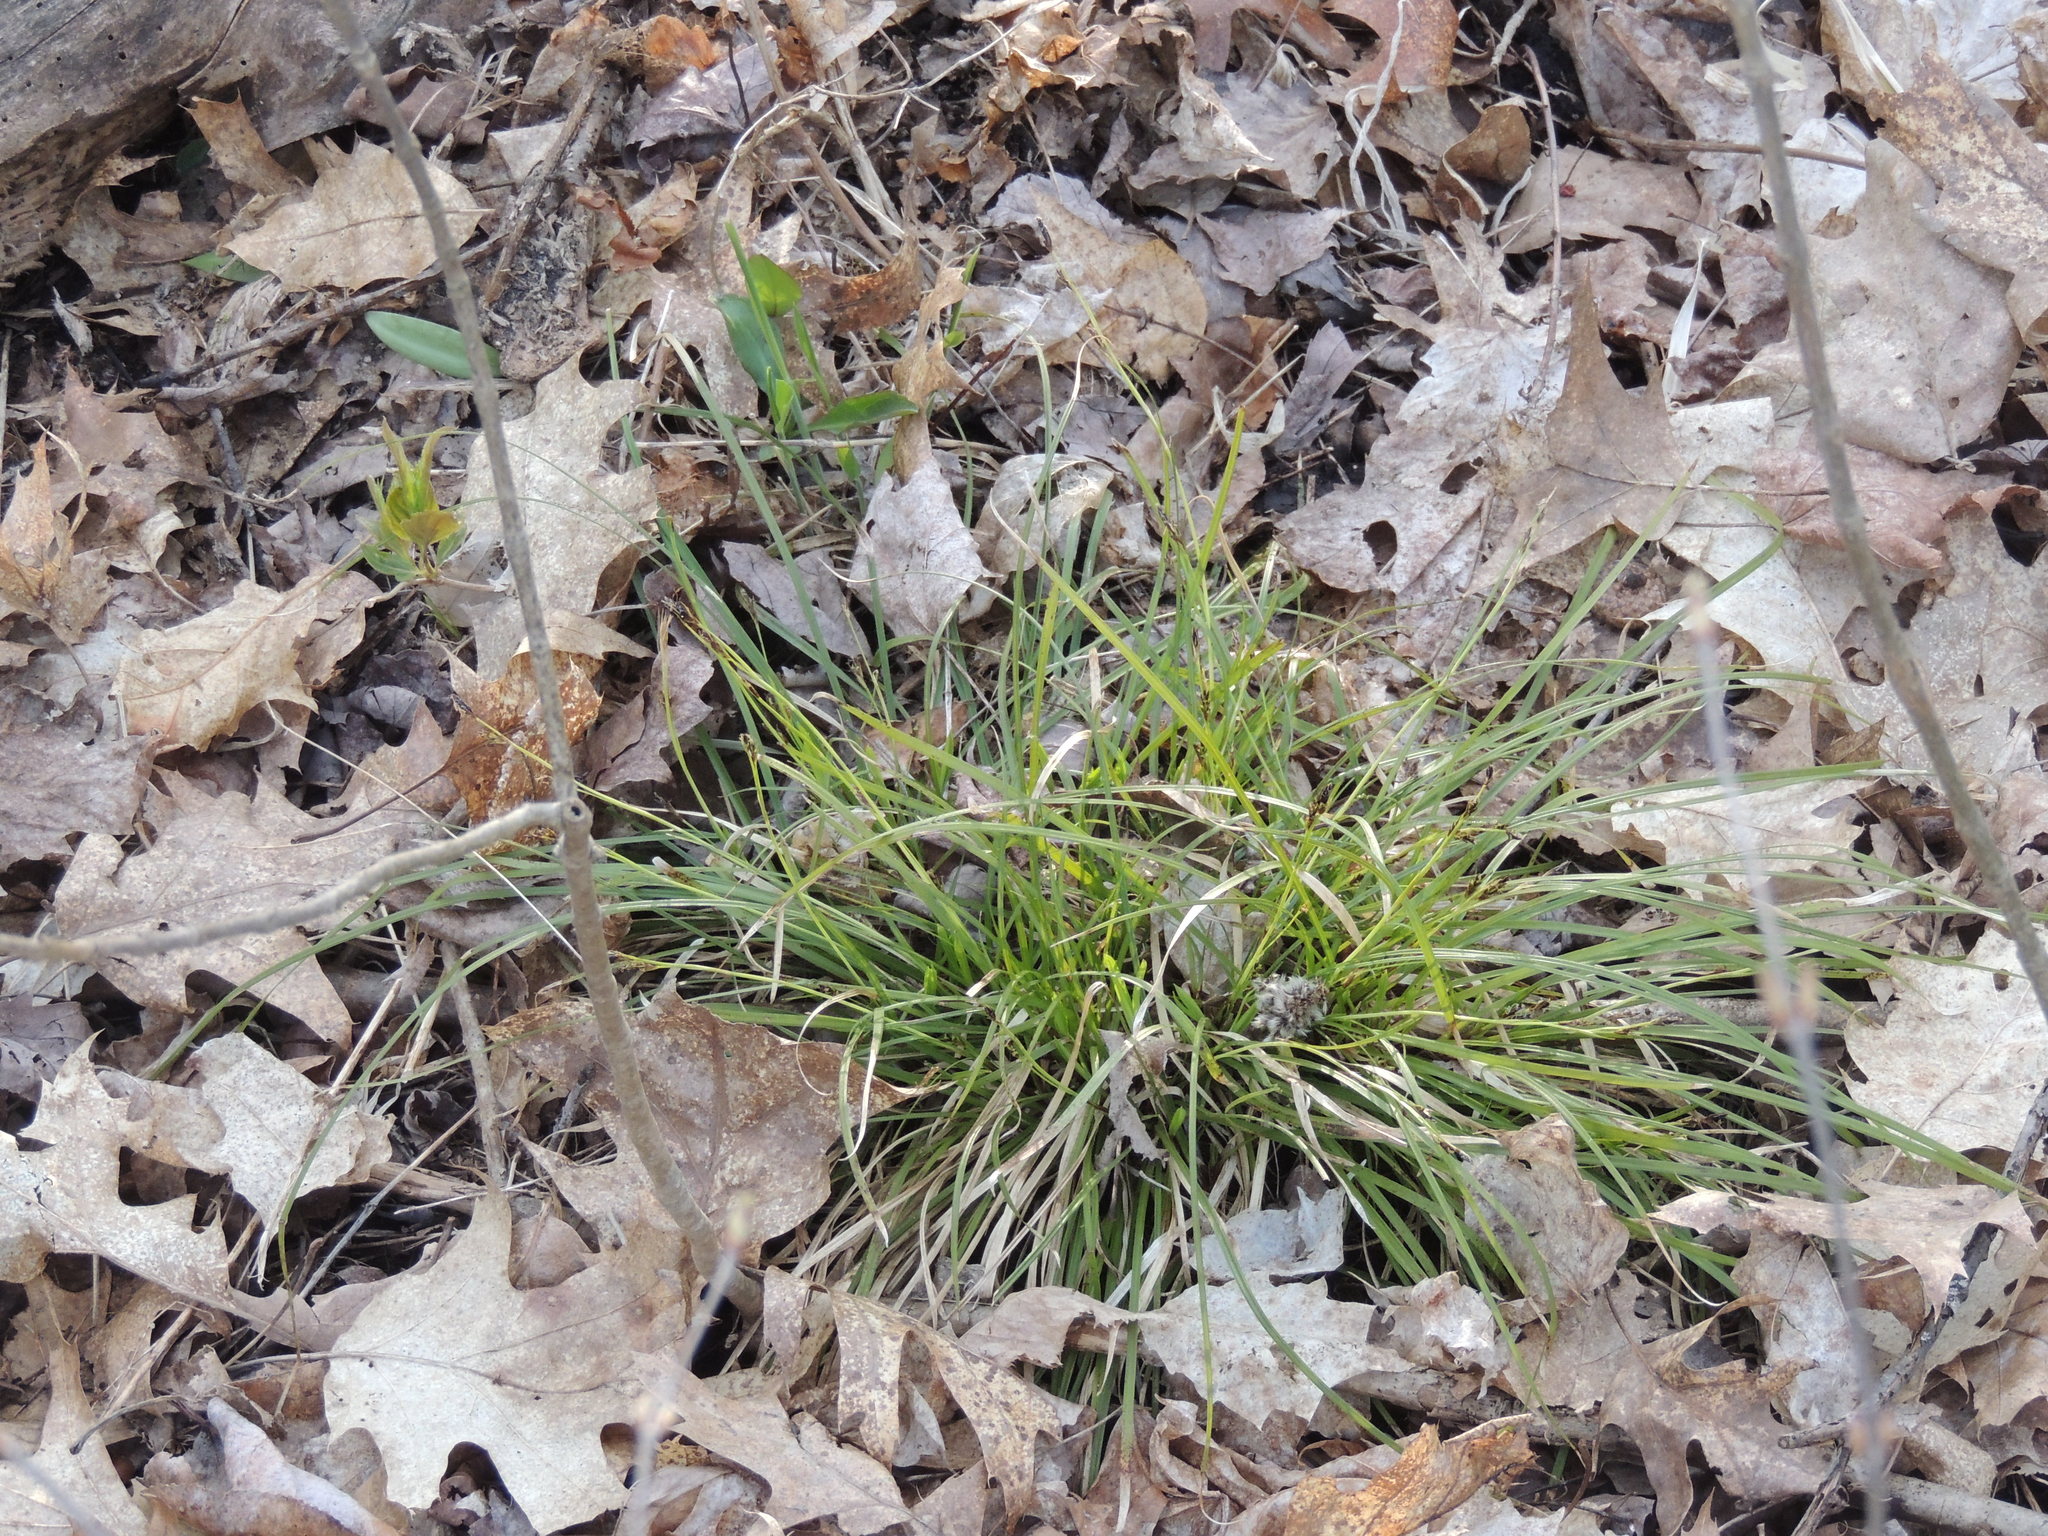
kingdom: Plantae
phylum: Tracheophyta
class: Liliopsida
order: Poales
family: Cyperaceae
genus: Carex
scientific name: Carex pedunculata
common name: Pedunculate sedge
